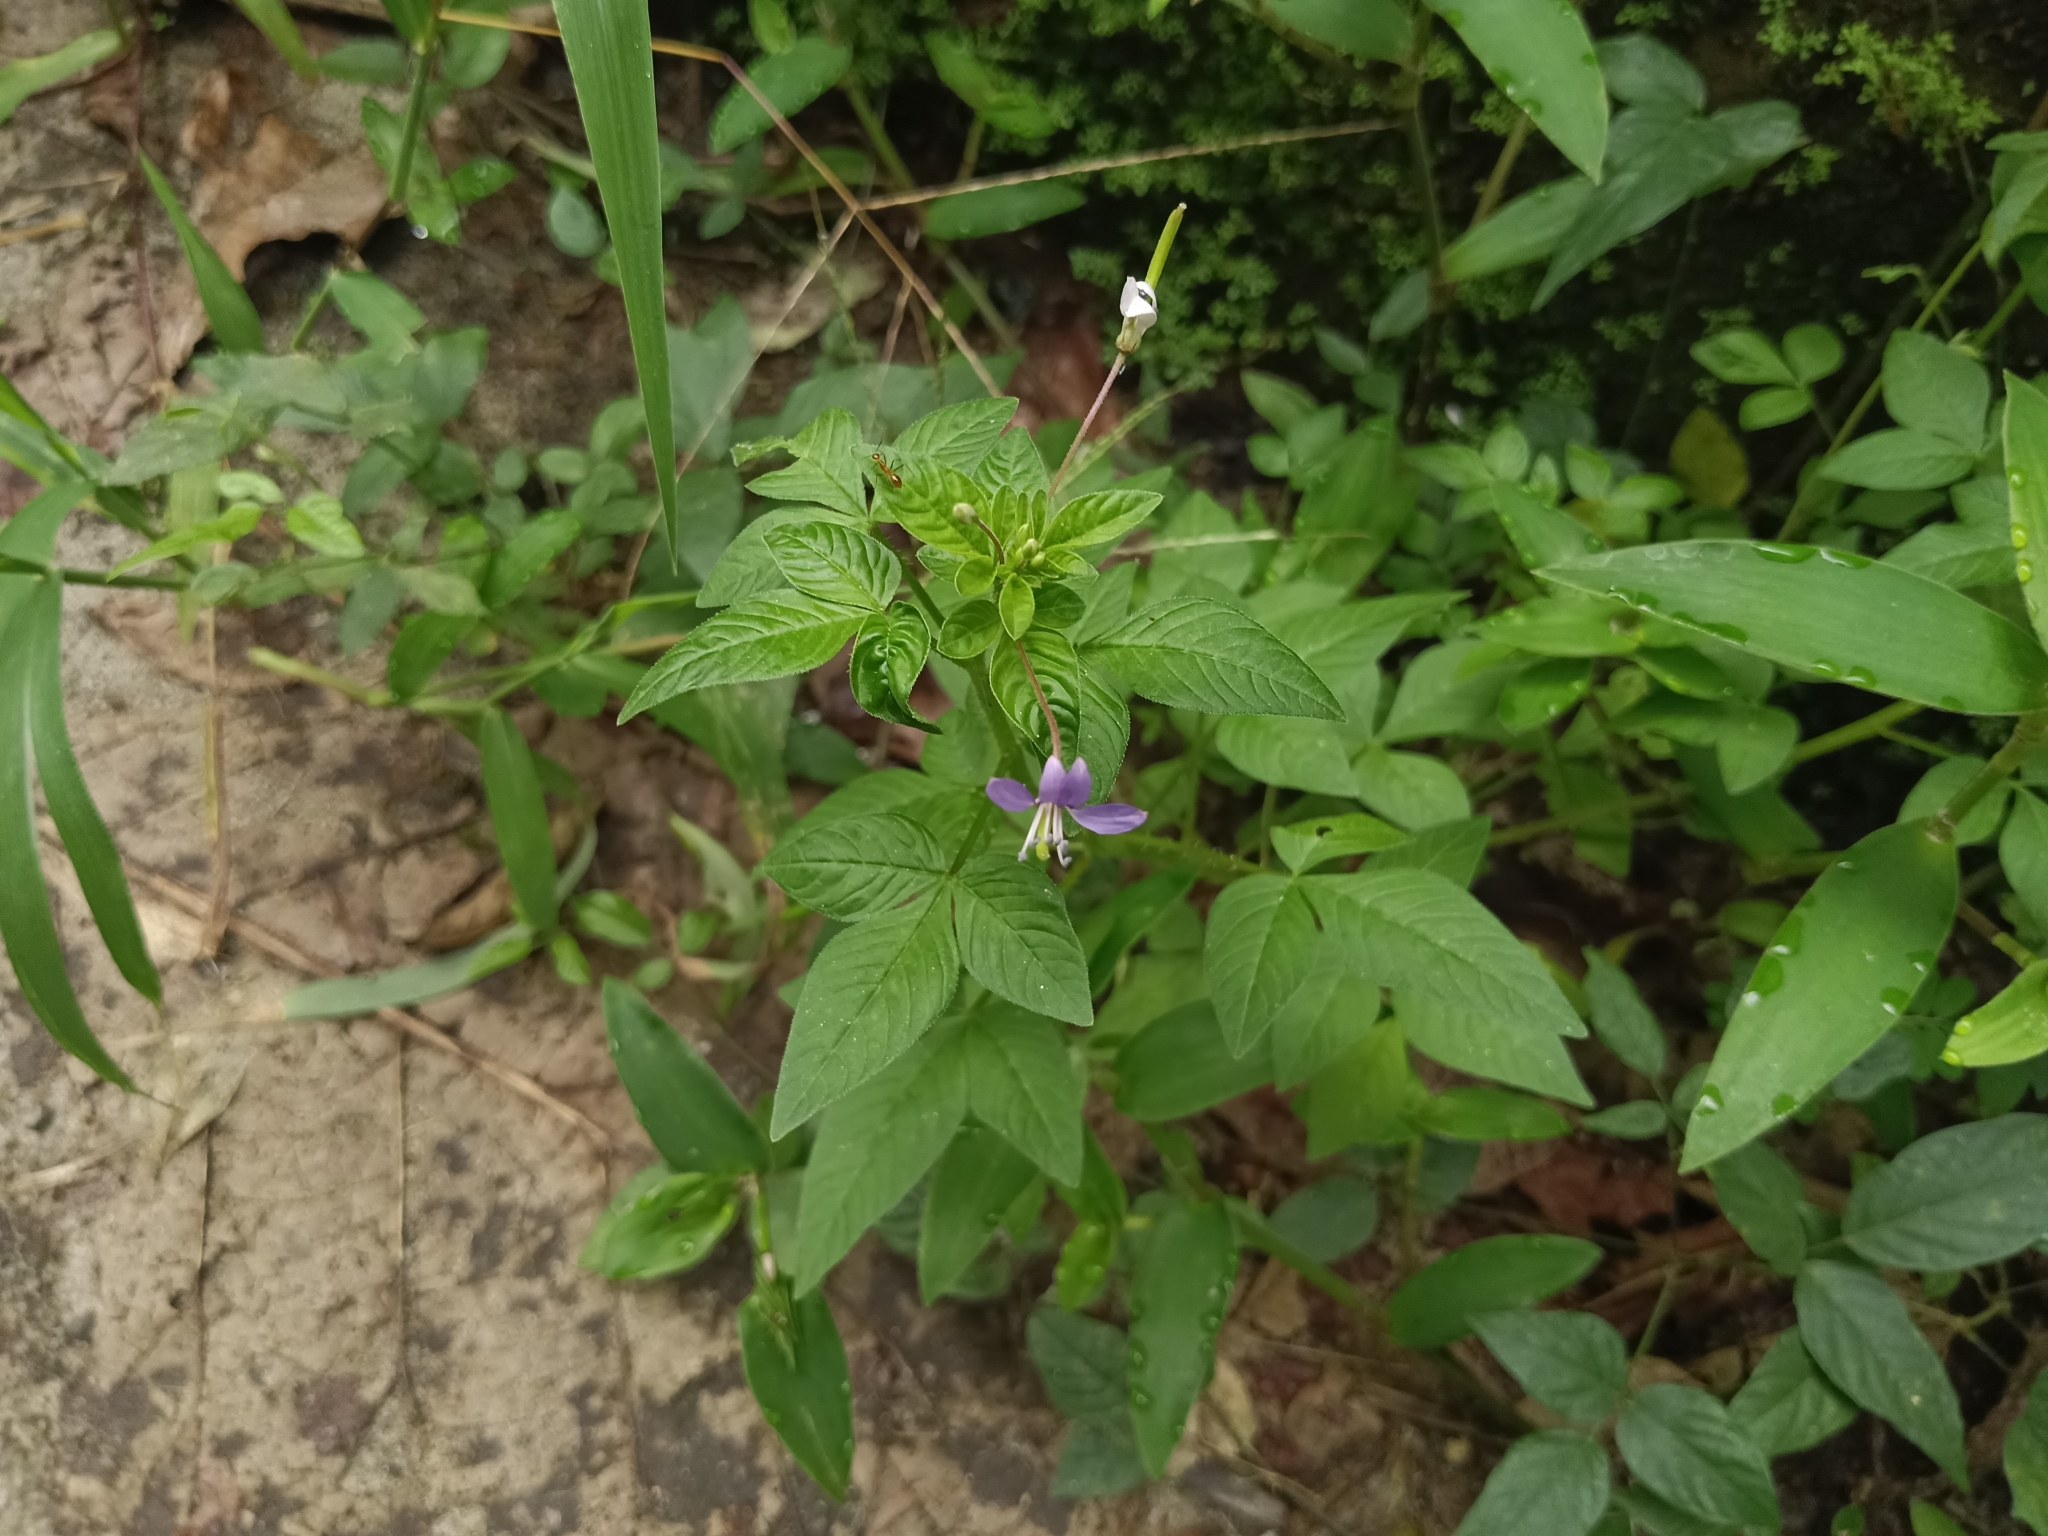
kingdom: Plantae
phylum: Tracheophyta
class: Magnoliopsida
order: Brassicales
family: Cleomaceae
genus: Sieruela
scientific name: Sieruela rutidosperma
